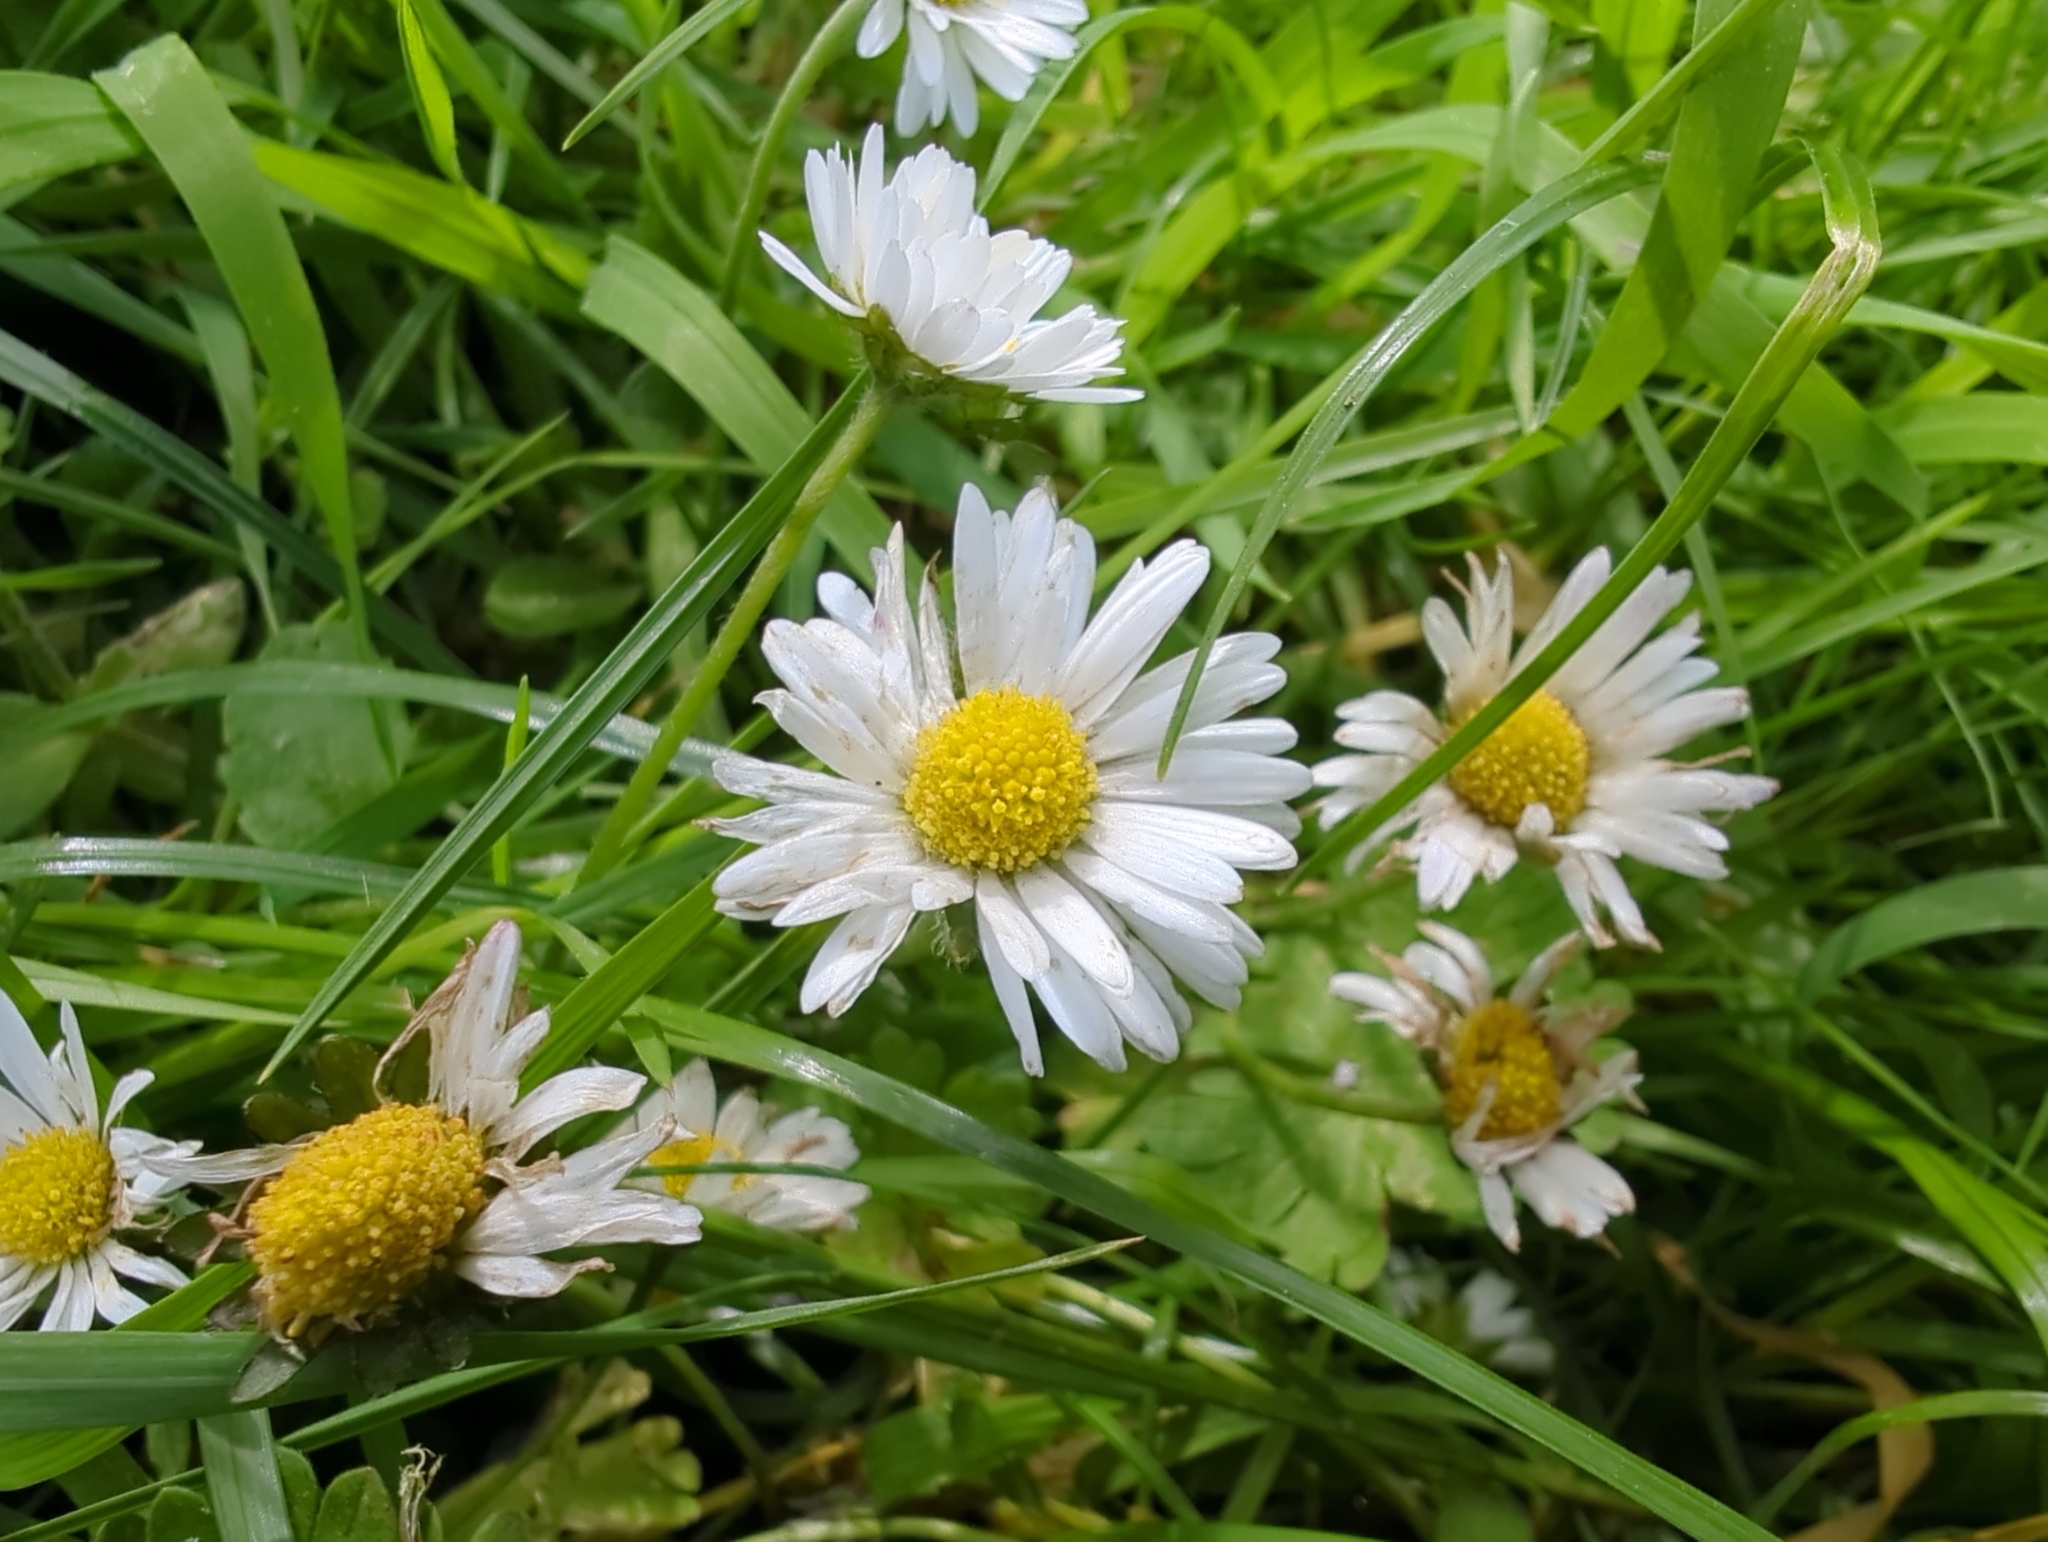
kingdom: Plantae
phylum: Tracheophyta
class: Magnoliopsida
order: Asterales
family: Asteraceae
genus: Bellis
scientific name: Bellis perennis
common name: Lawndaisy
